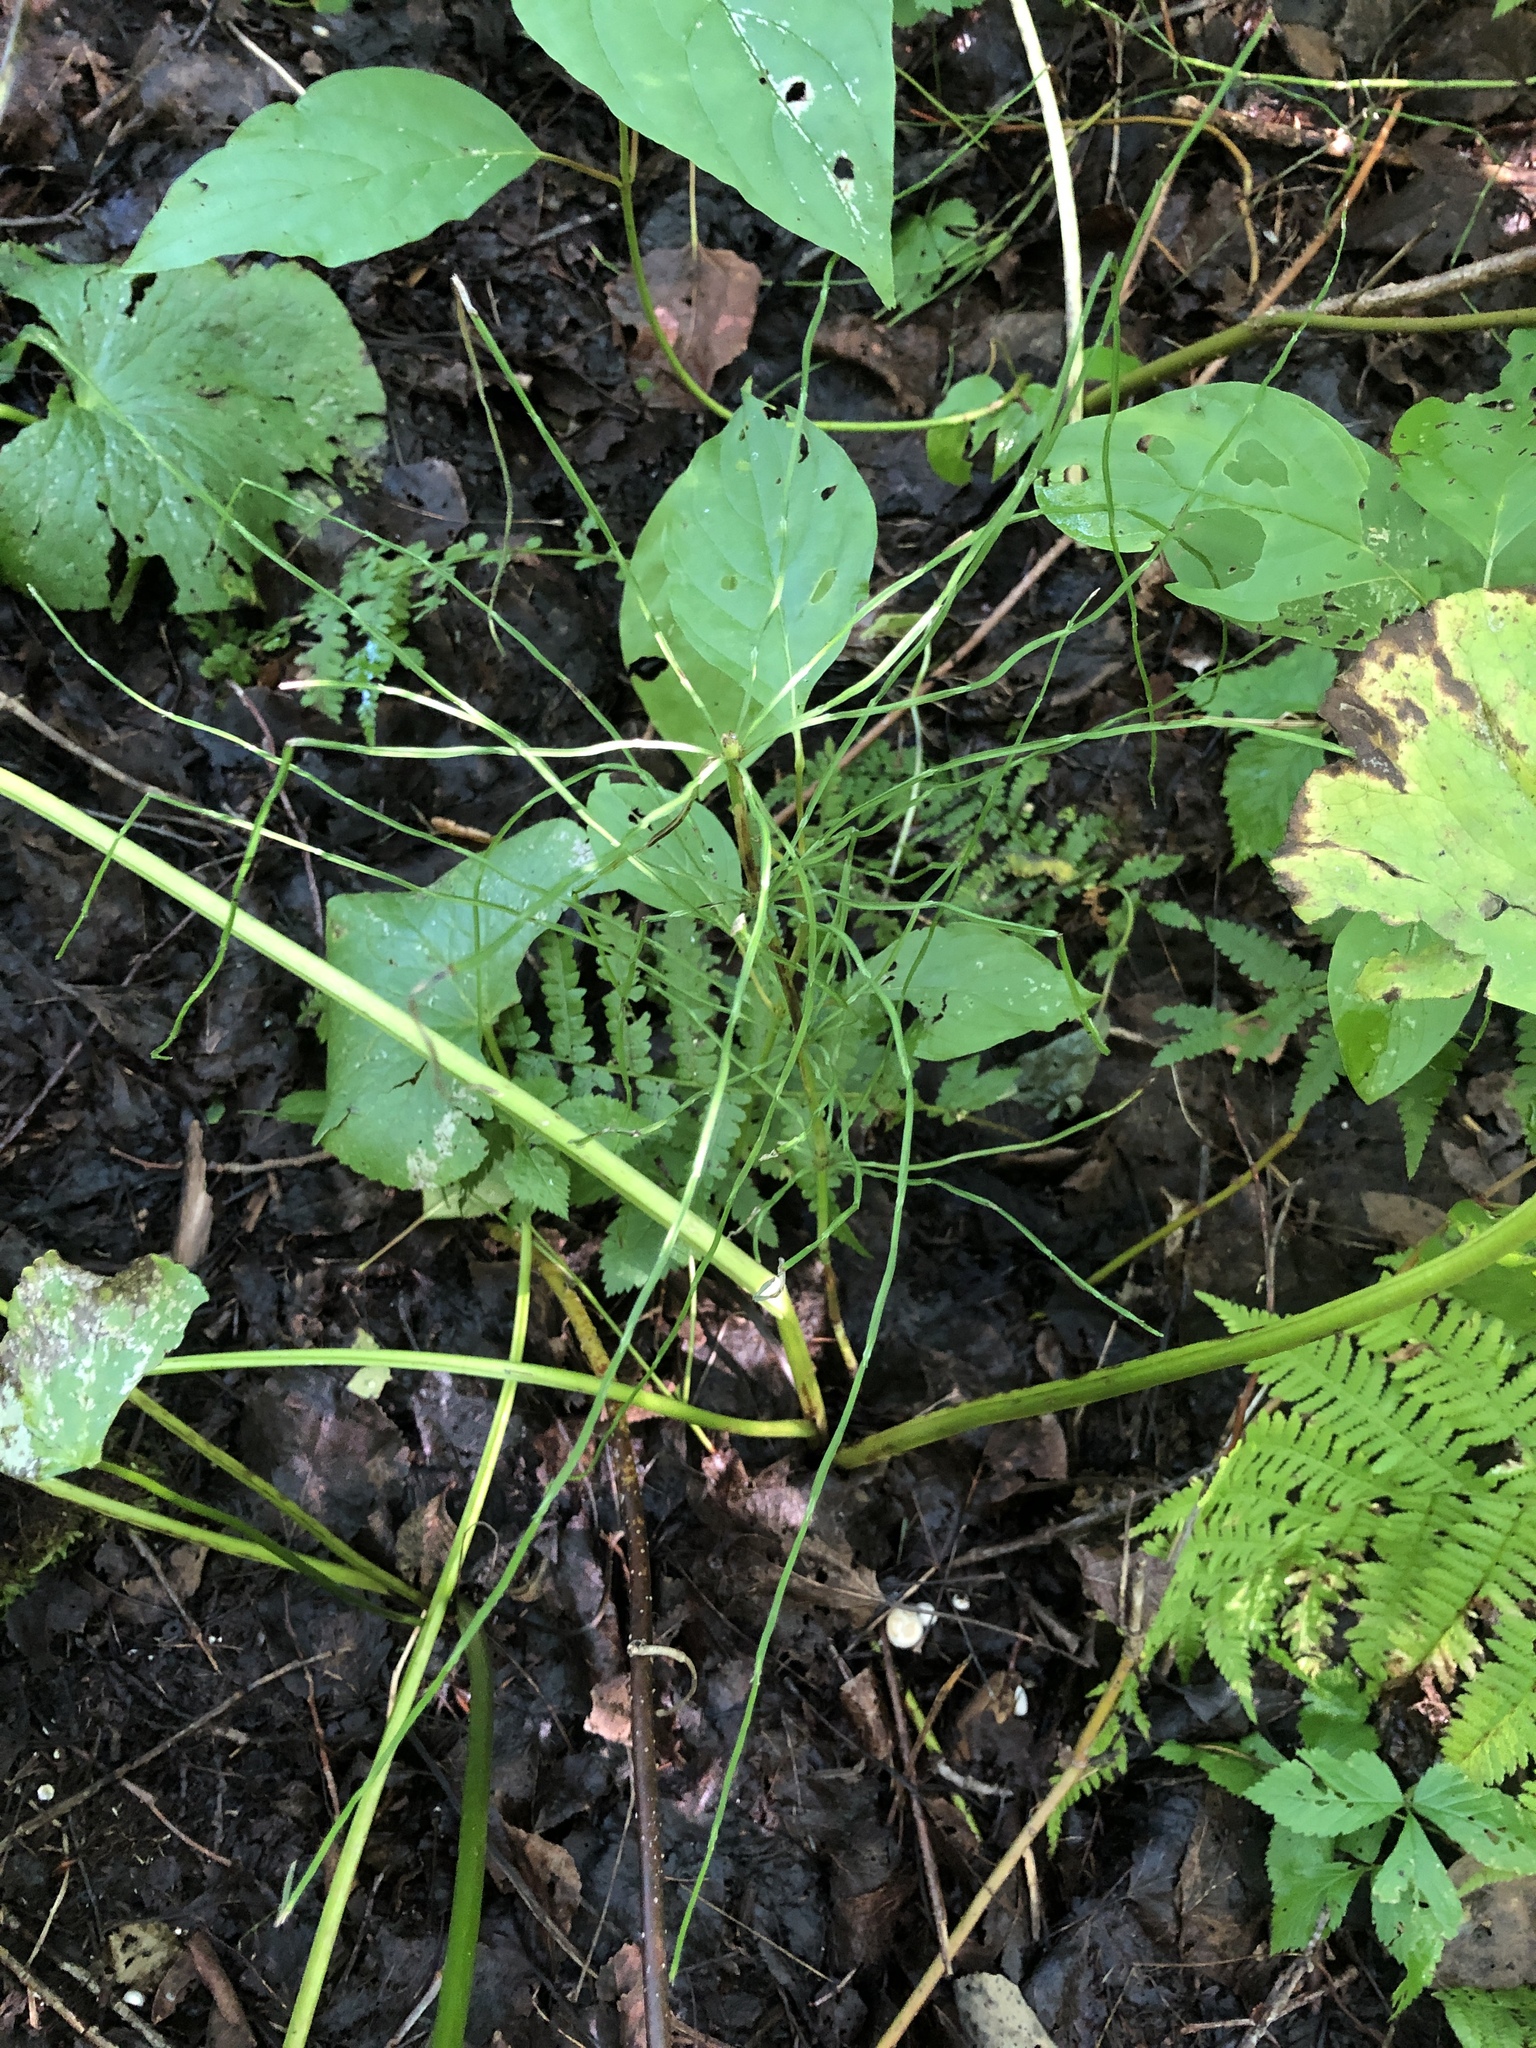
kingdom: Plantae
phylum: Tracheophyta
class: Magnoliopsida
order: Ranunculales
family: Ranunculaceae
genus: Caltha
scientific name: Caltha palustris
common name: Marsh marigold
